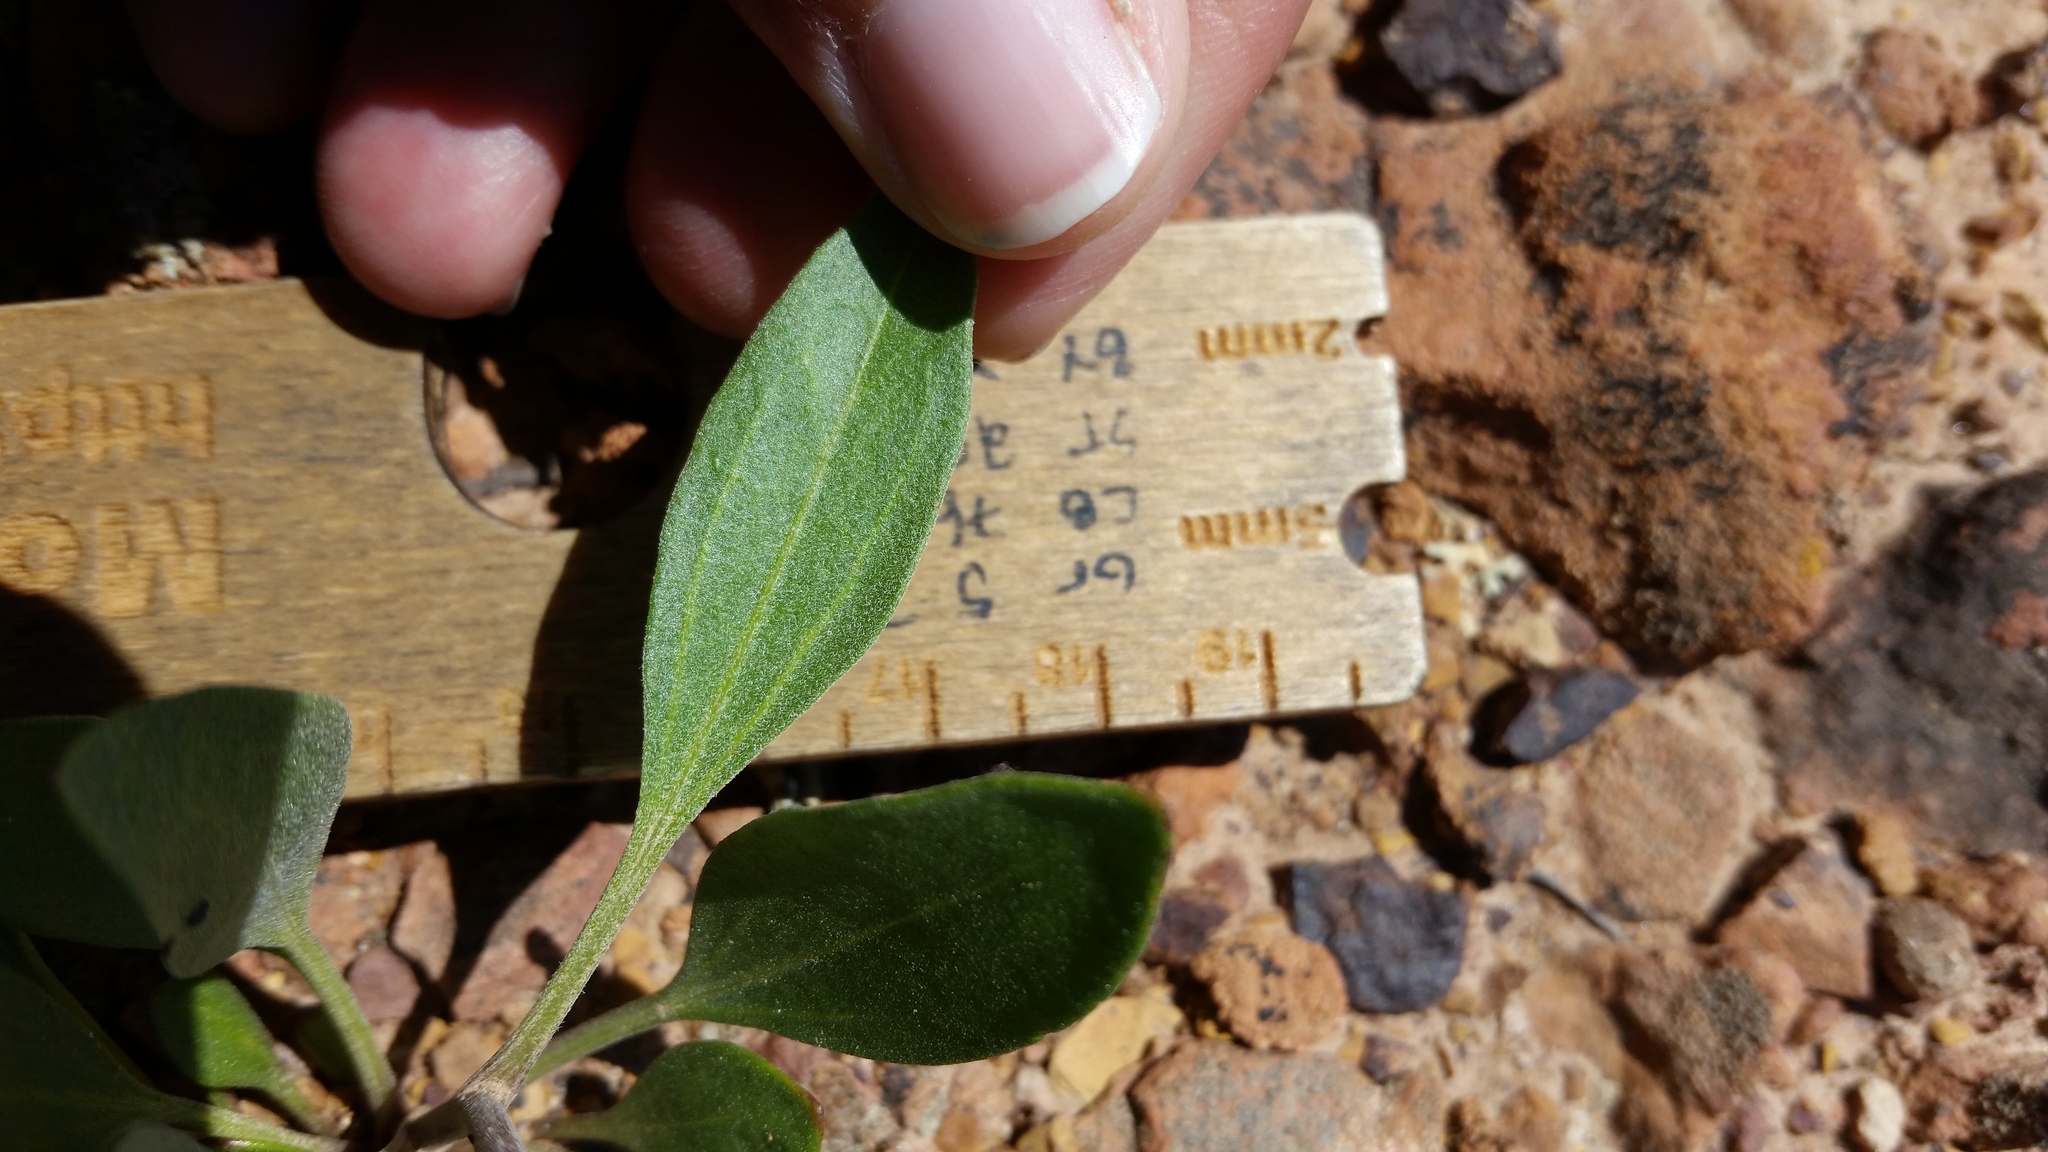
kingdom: Plantae
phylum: Tracheophyta
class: Magnoliopsida
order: Asterales
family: Asteraceae
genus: Platyschkuhria
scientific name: Platyschkuhria integrifolia
